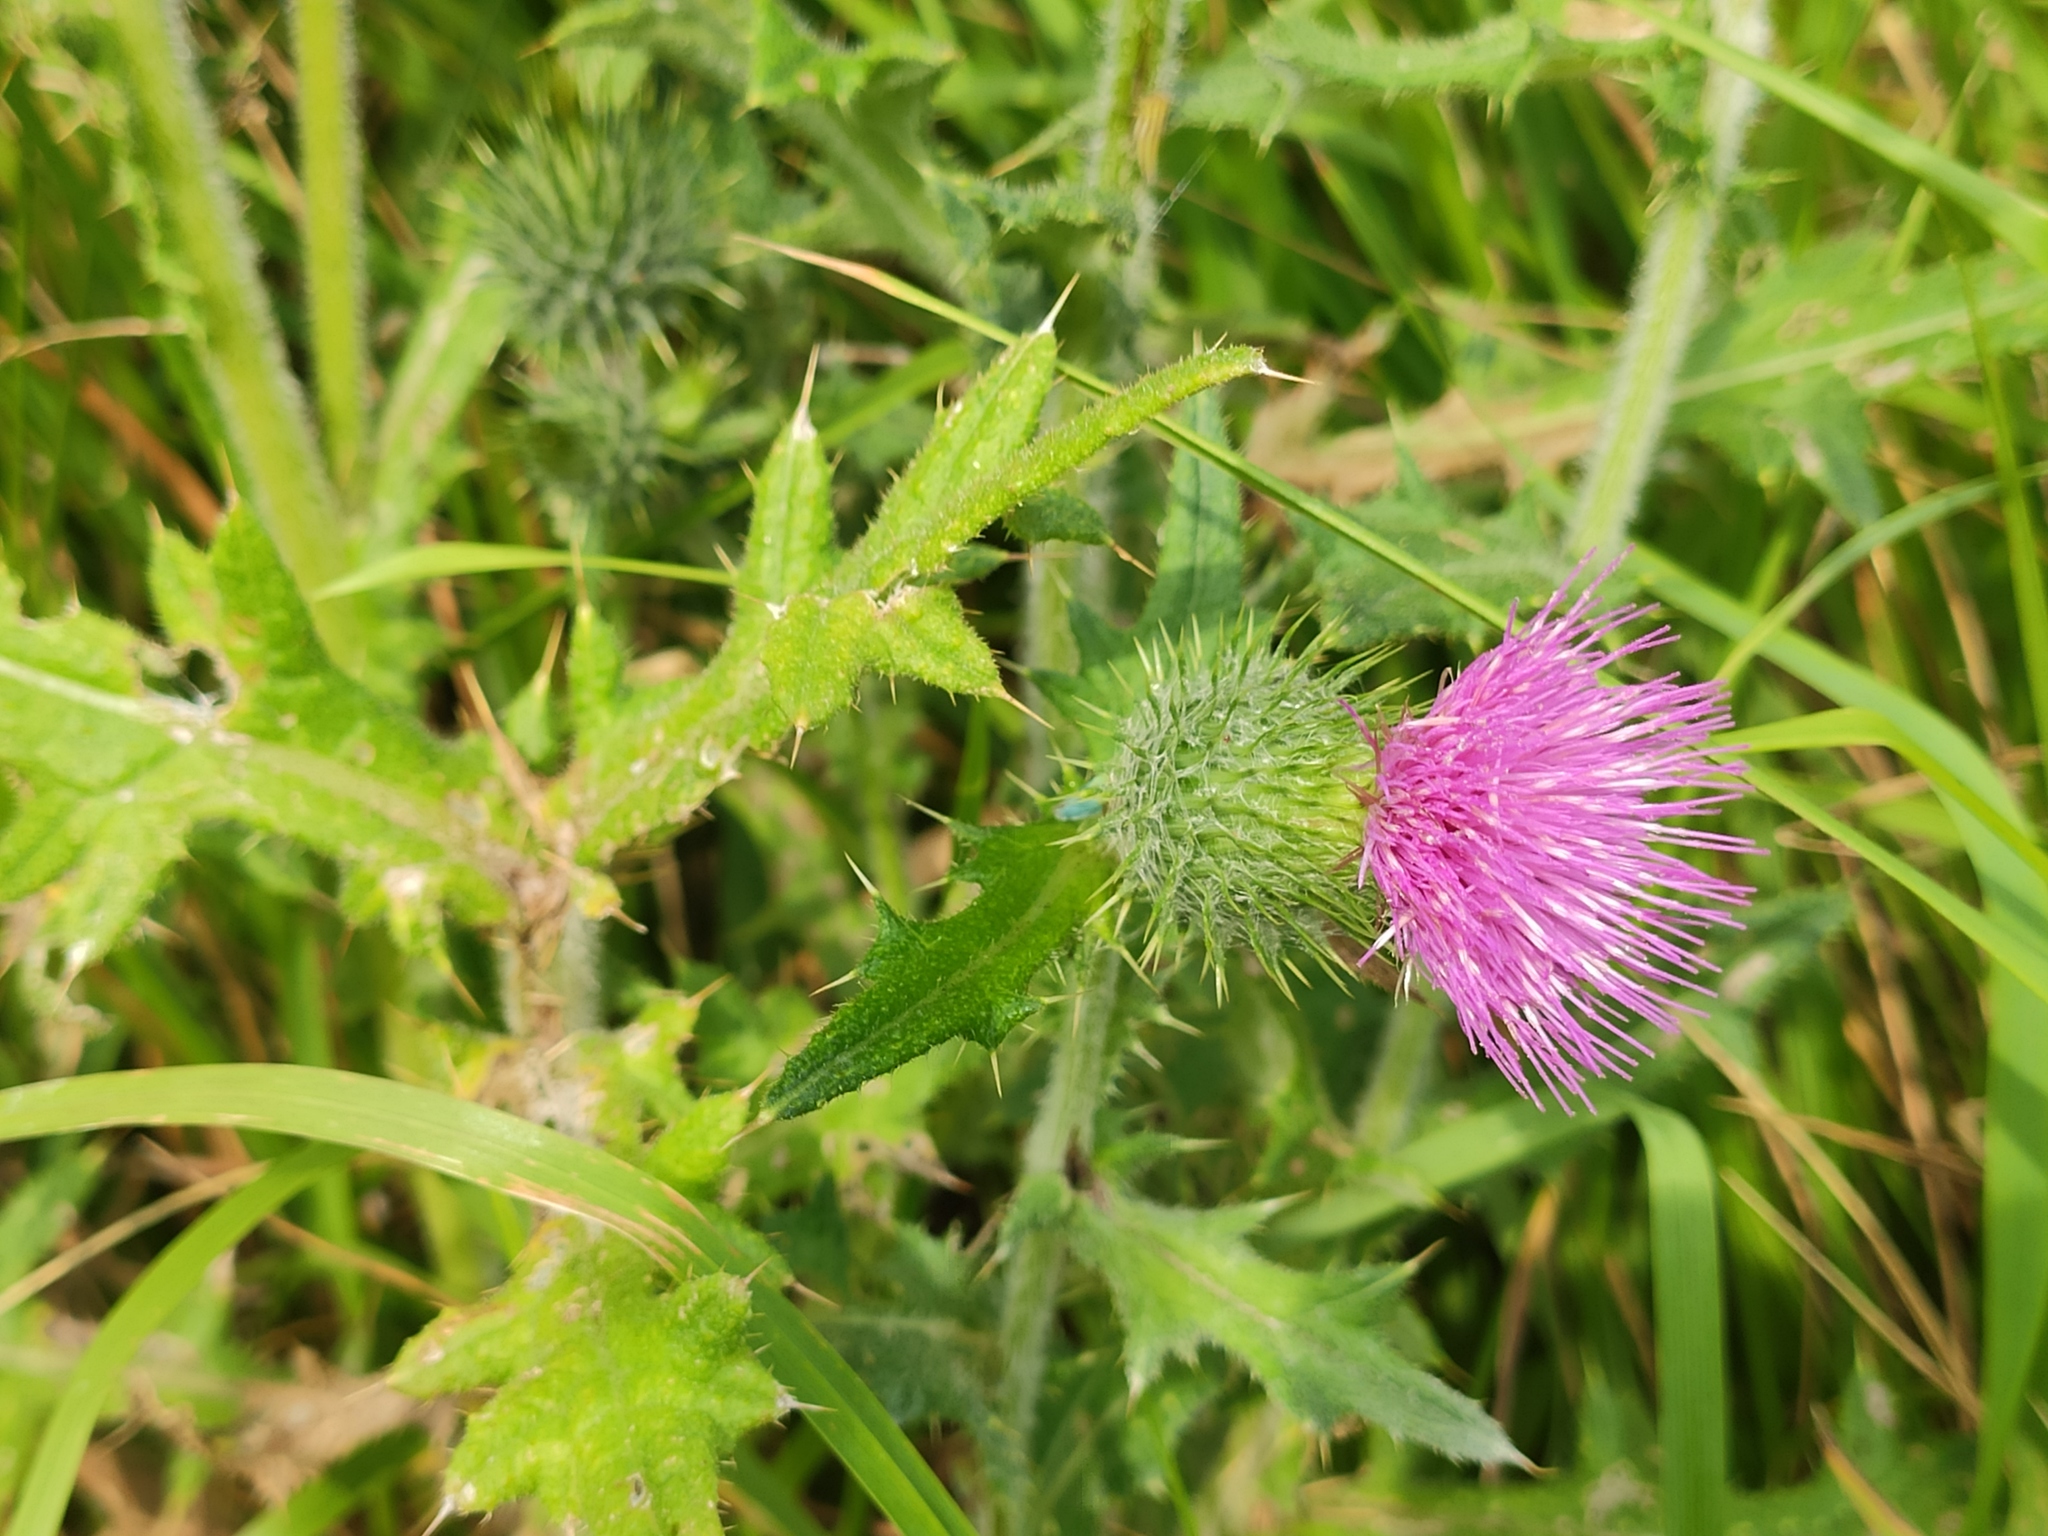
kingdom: Plantae
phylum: Tracheophyta
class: Magnoliopsida
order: Asterales
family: Asteraceae
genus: Cirsium
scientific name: Cirsium vulgare
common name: Bull thistle
